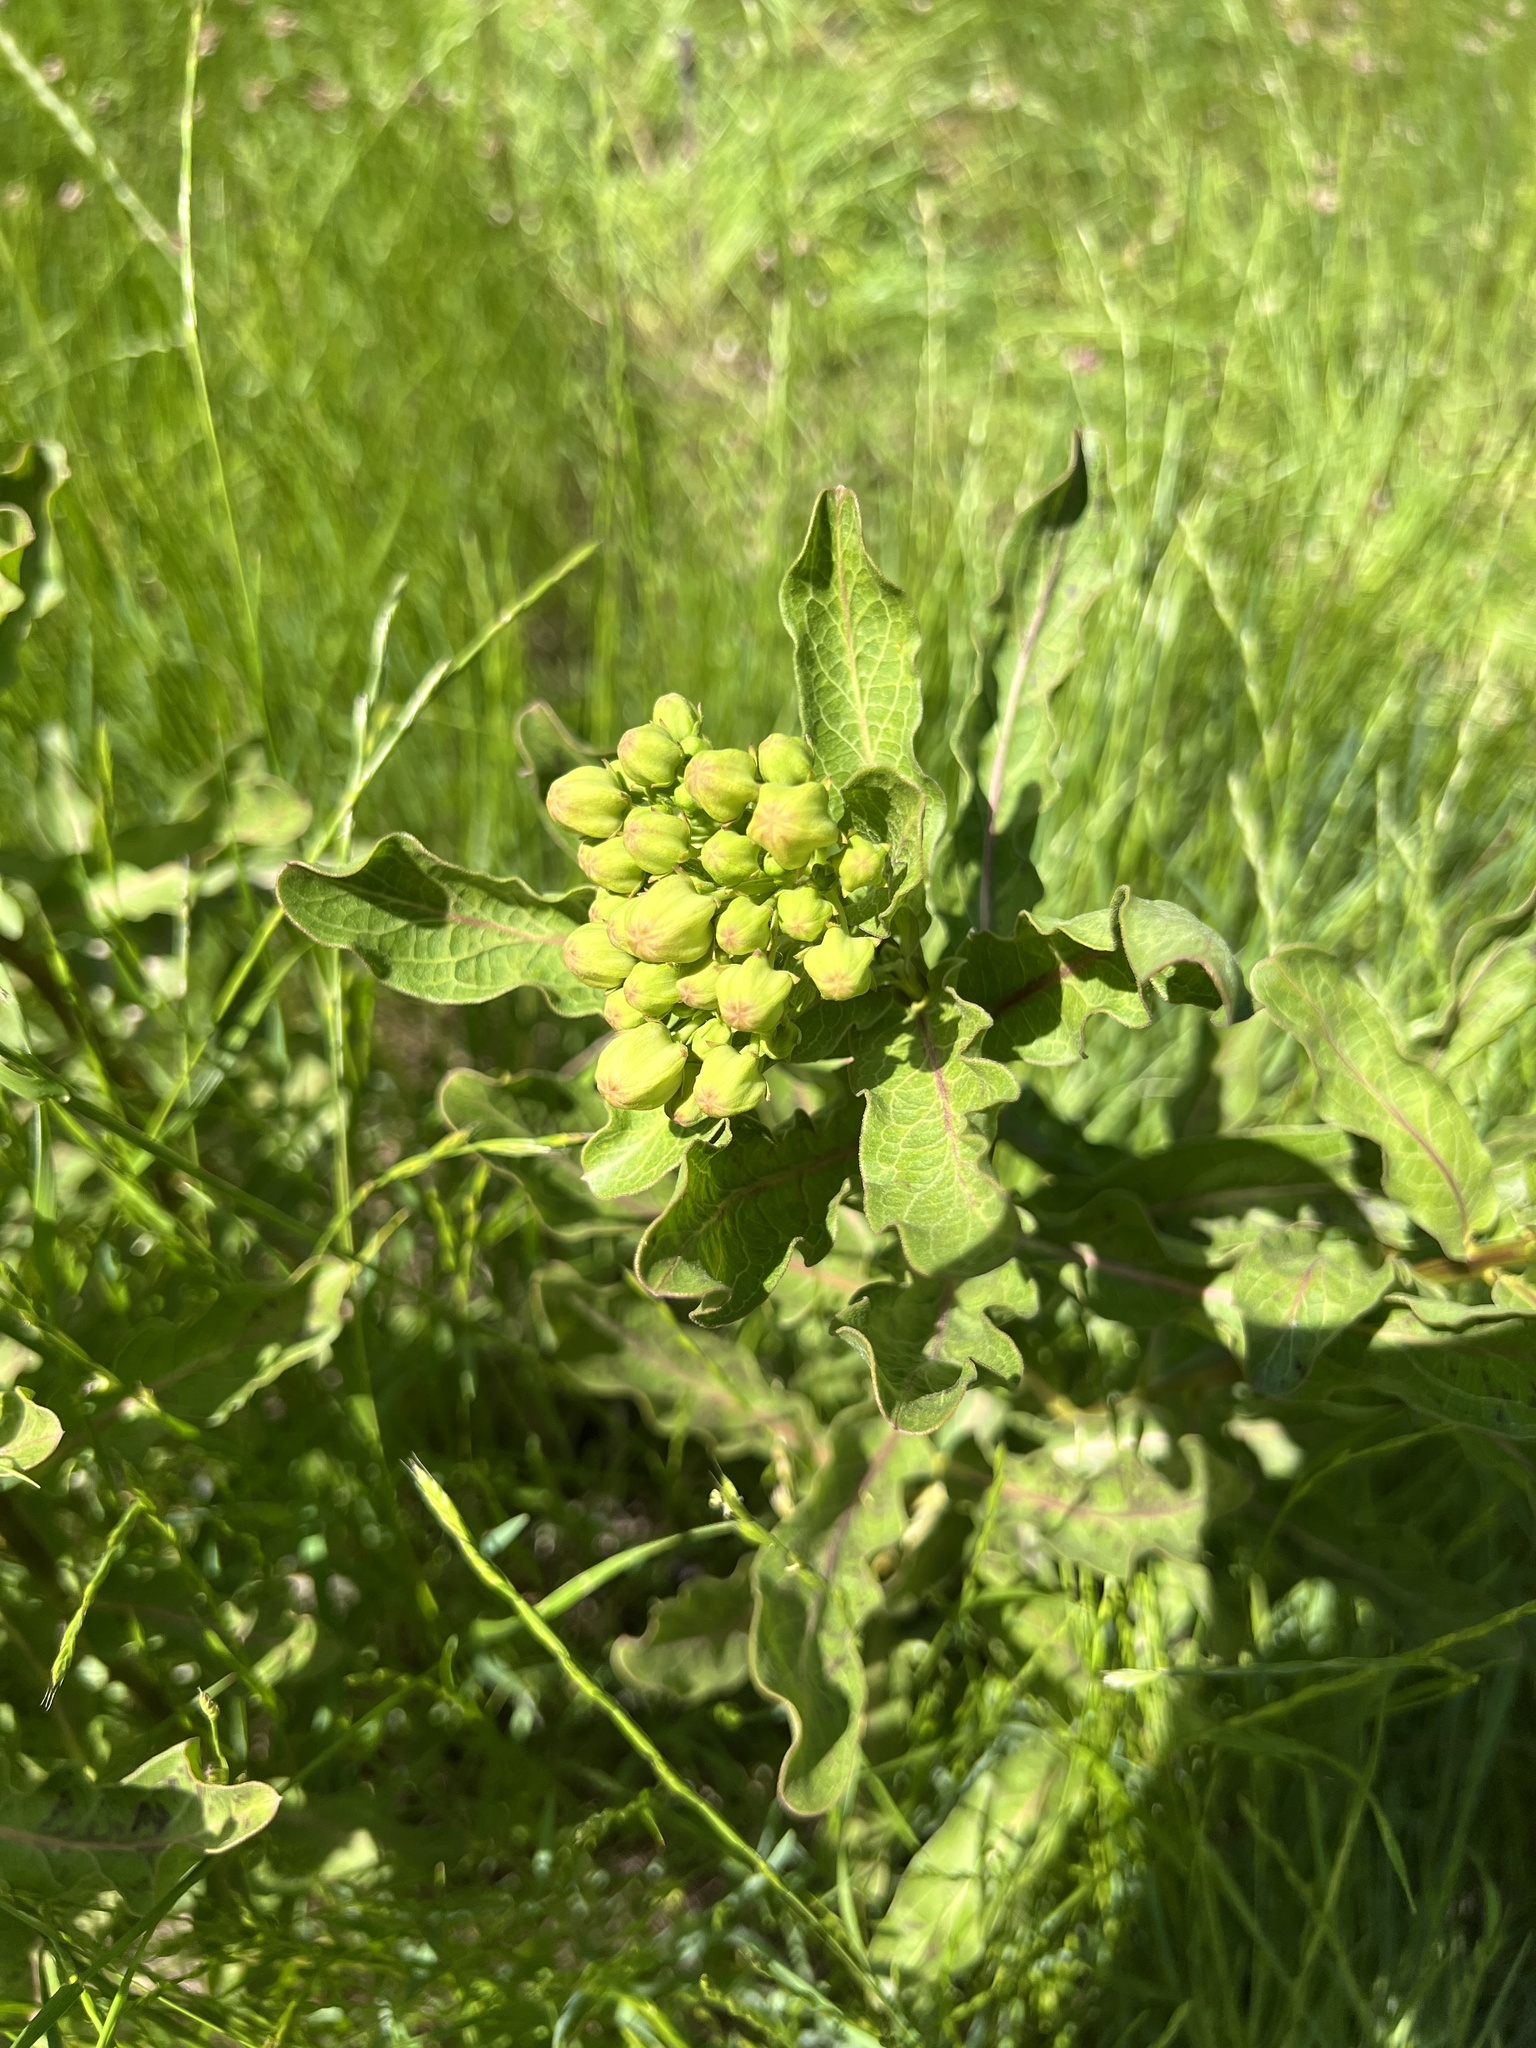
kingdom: Plantae
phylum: Tracheophyta
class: Magnoliopsida
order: Gentianales
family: Apocynaceae
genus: Asclepias
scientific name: Asclepias viridis
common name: Antelope-horns
